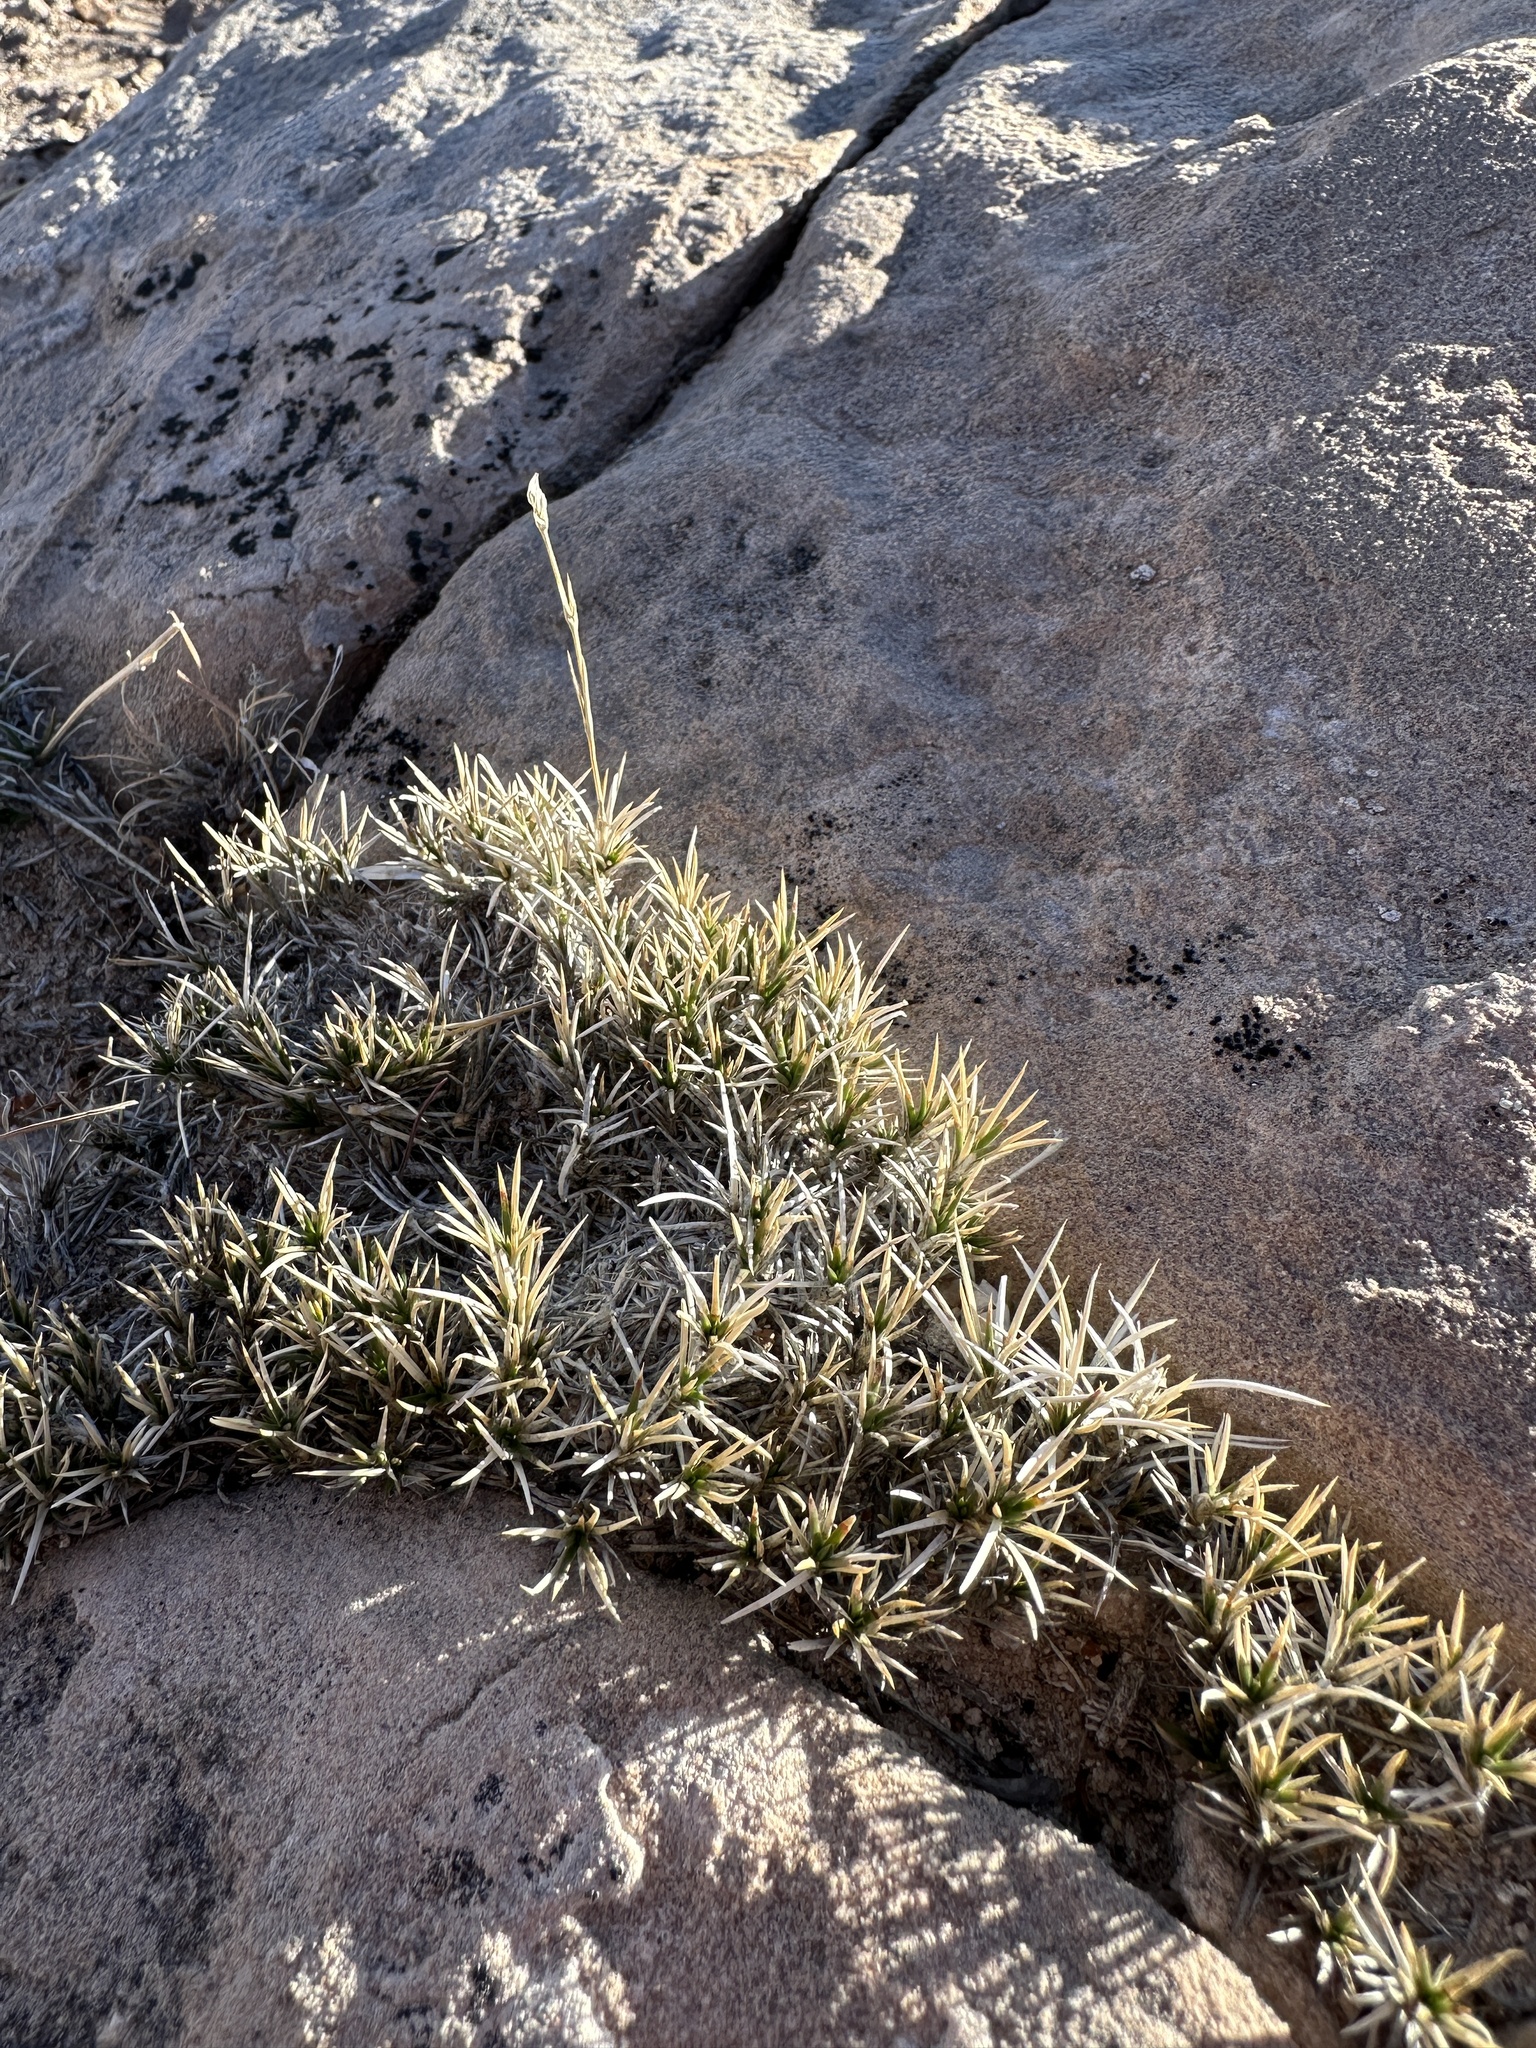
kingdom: Plantae
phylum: Tracheophyta
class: Magnoliopsida
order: Caryophyllales
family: Caryophyllaceae
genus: Eremogone
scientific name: Eremogone eastwoodiae
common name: Eastwood's sandwort
